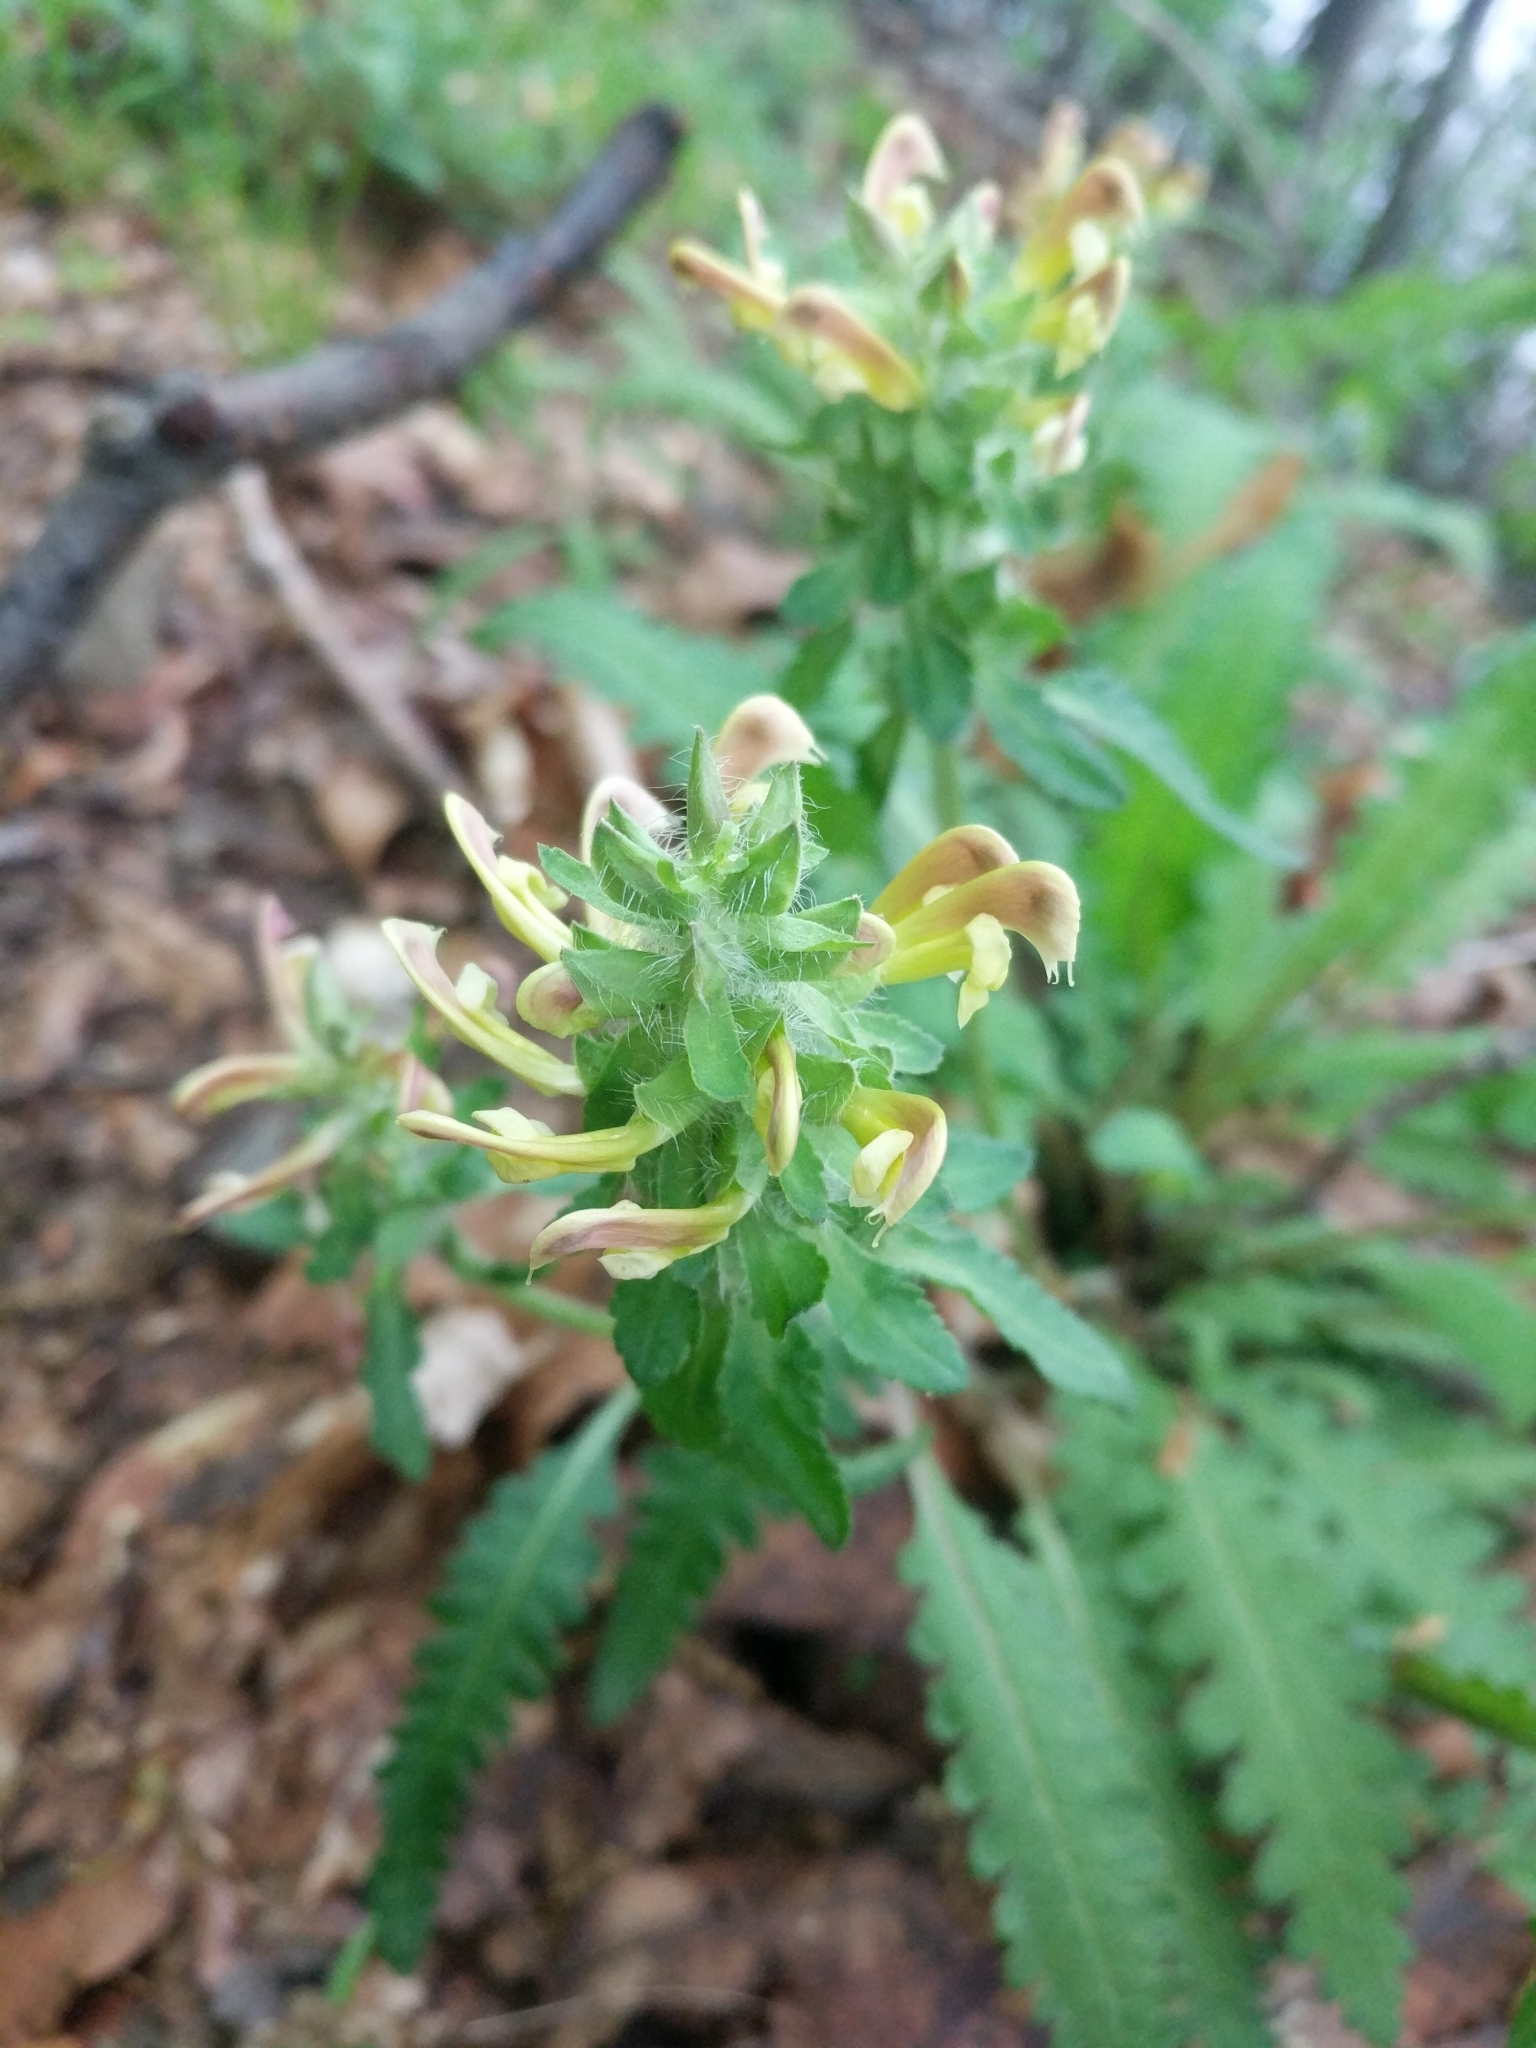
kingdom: Plantae
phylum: Tracheophyta
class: Magnoliopsida
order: Lamiales
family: Orobanchaceae
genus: Pedicularis
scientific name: Pedicularis canadensis
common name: Early lousewort
